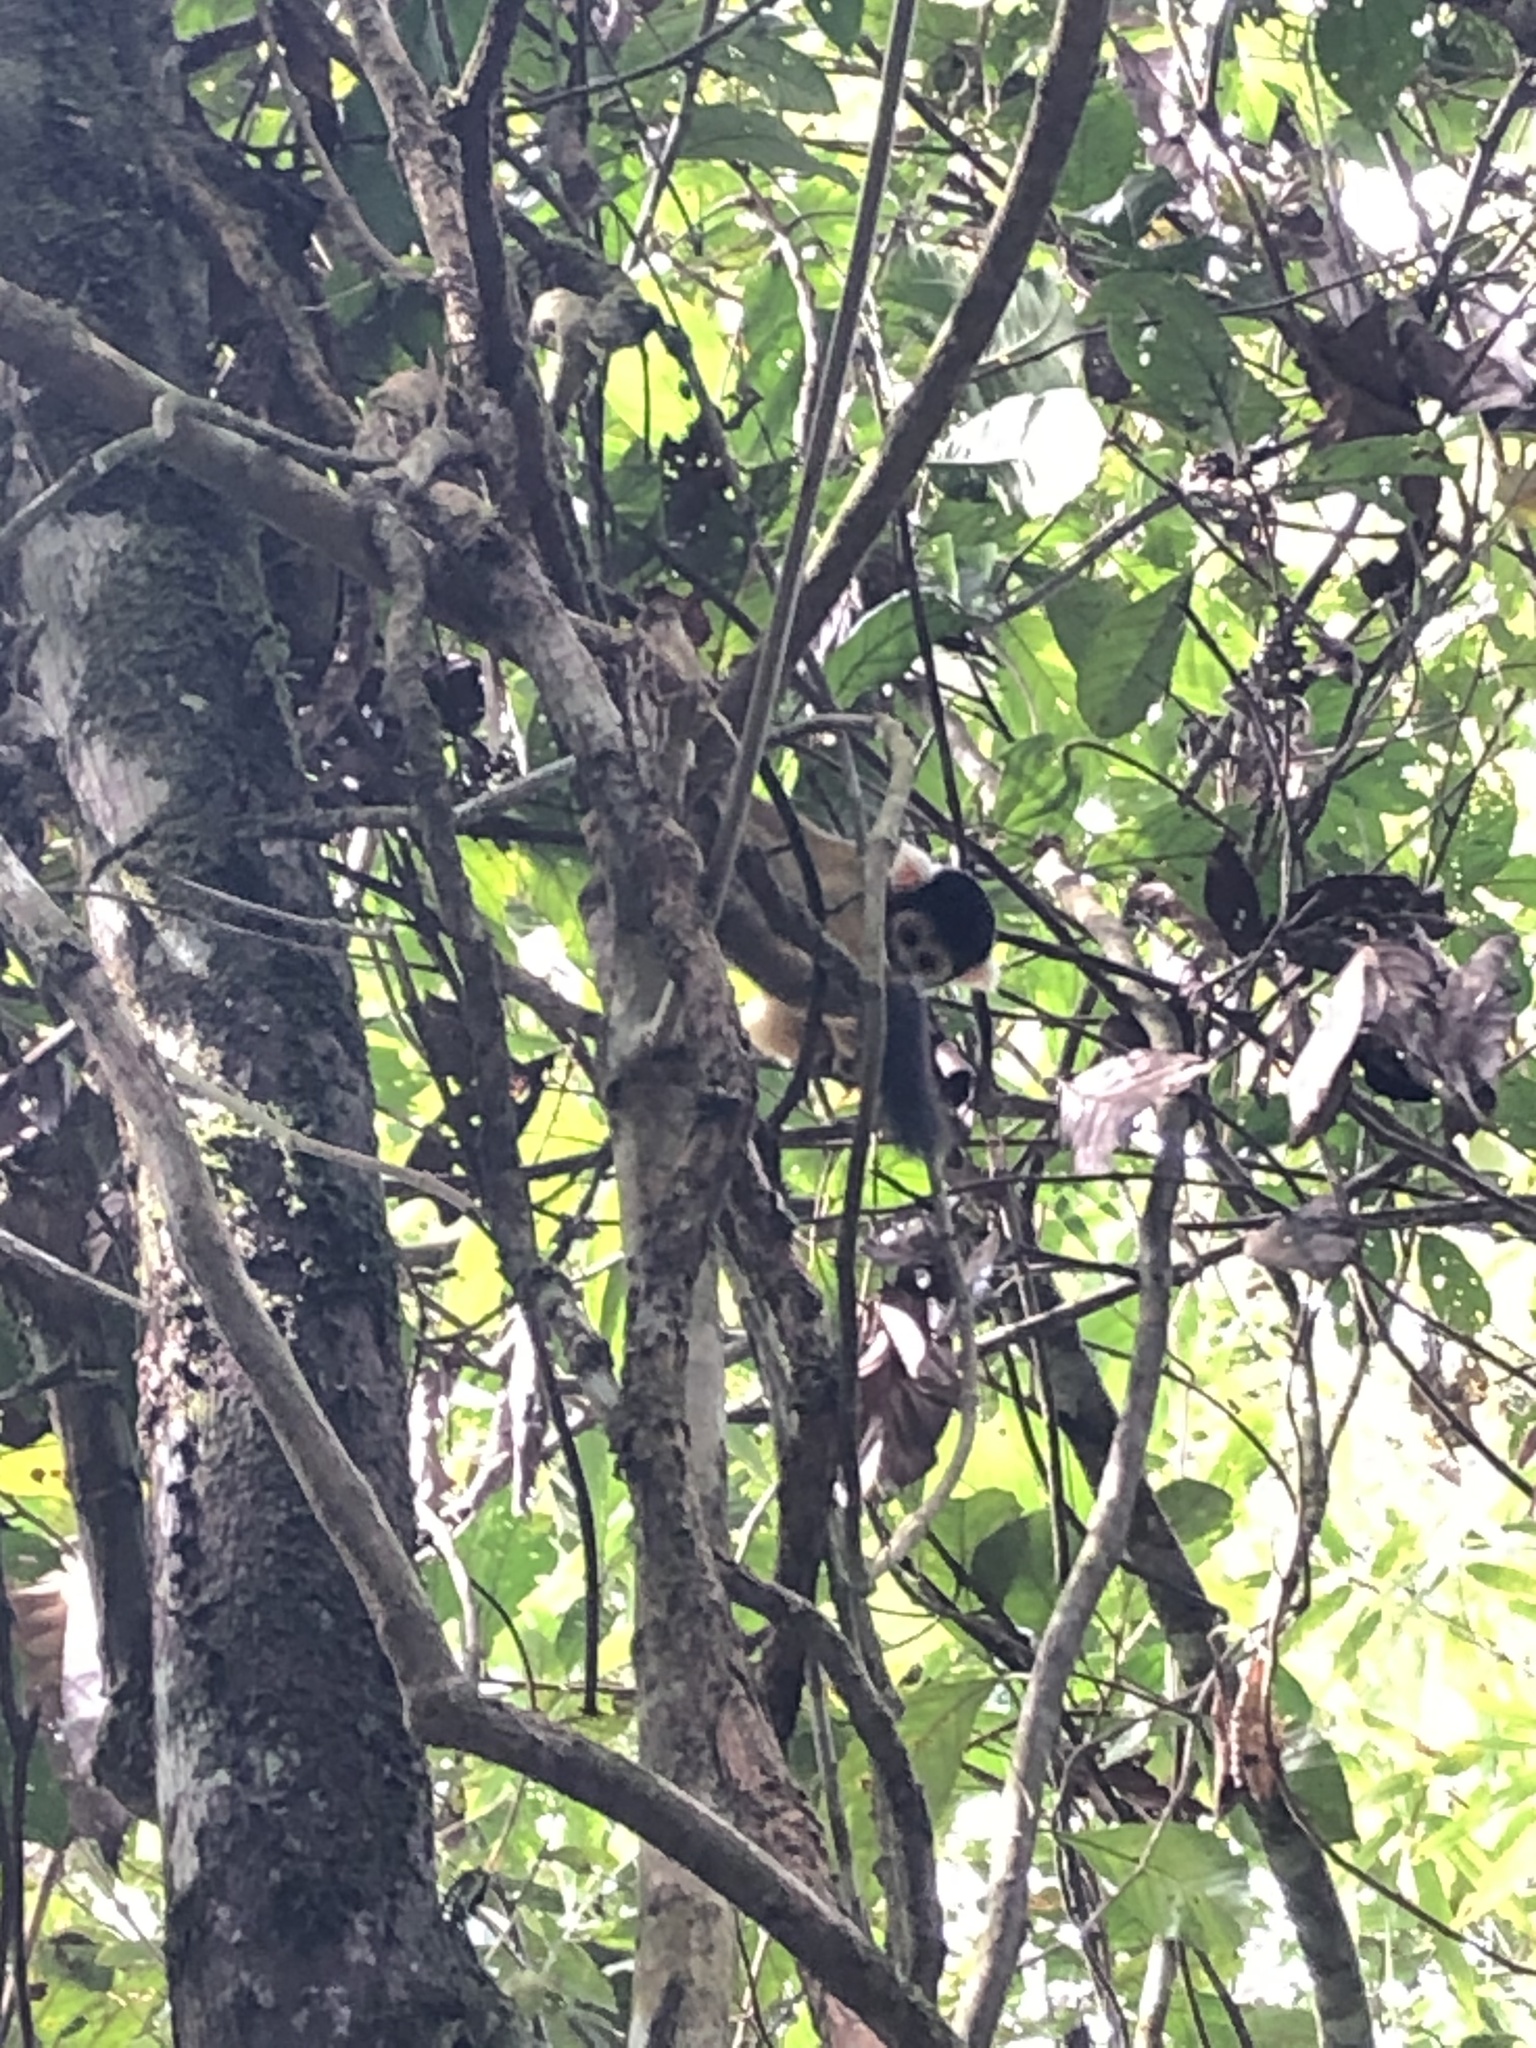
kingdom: Animalia
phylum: Chordata
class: Mammalia
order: Primates
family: Cebidae
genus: Saimiri
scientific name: Saimiri boliviensis
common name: Black-capped squirrel monkey
